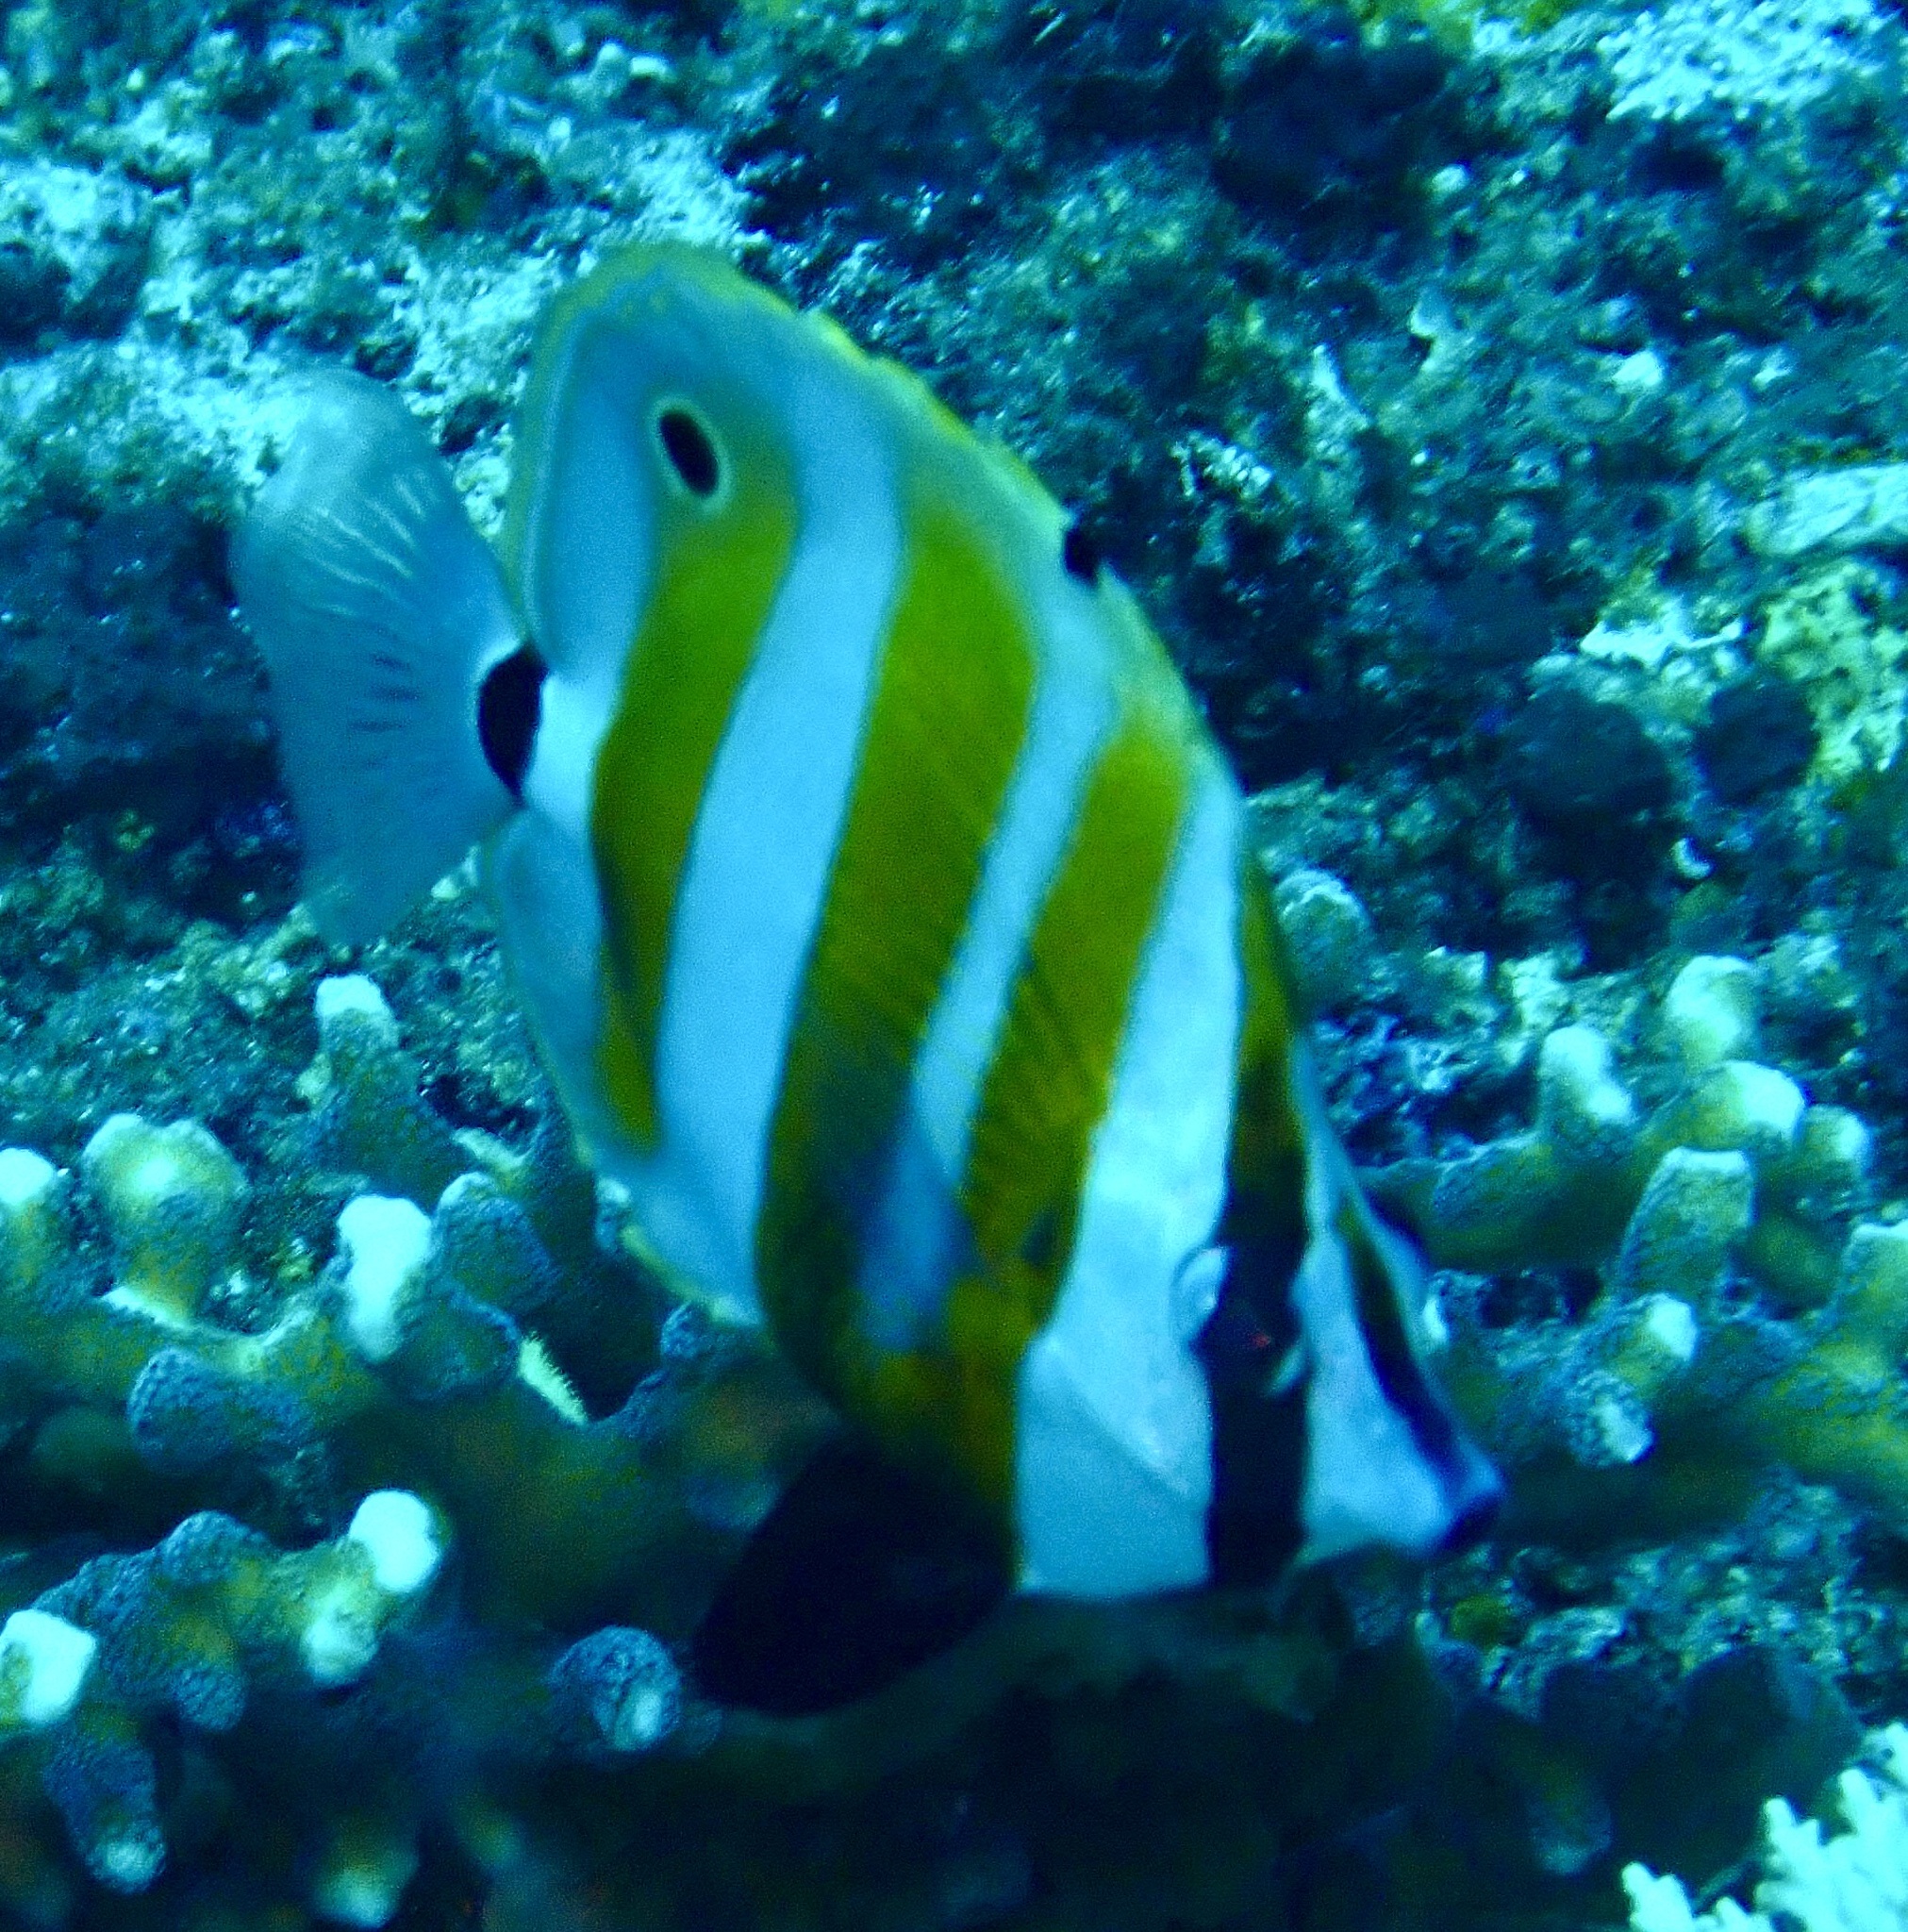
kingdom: Animalia
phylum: Chordata
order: Perciformes
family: Chaetodontidae
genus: Coradion
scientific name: Coradion chrysozonus
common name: Orange-banded coralfish
